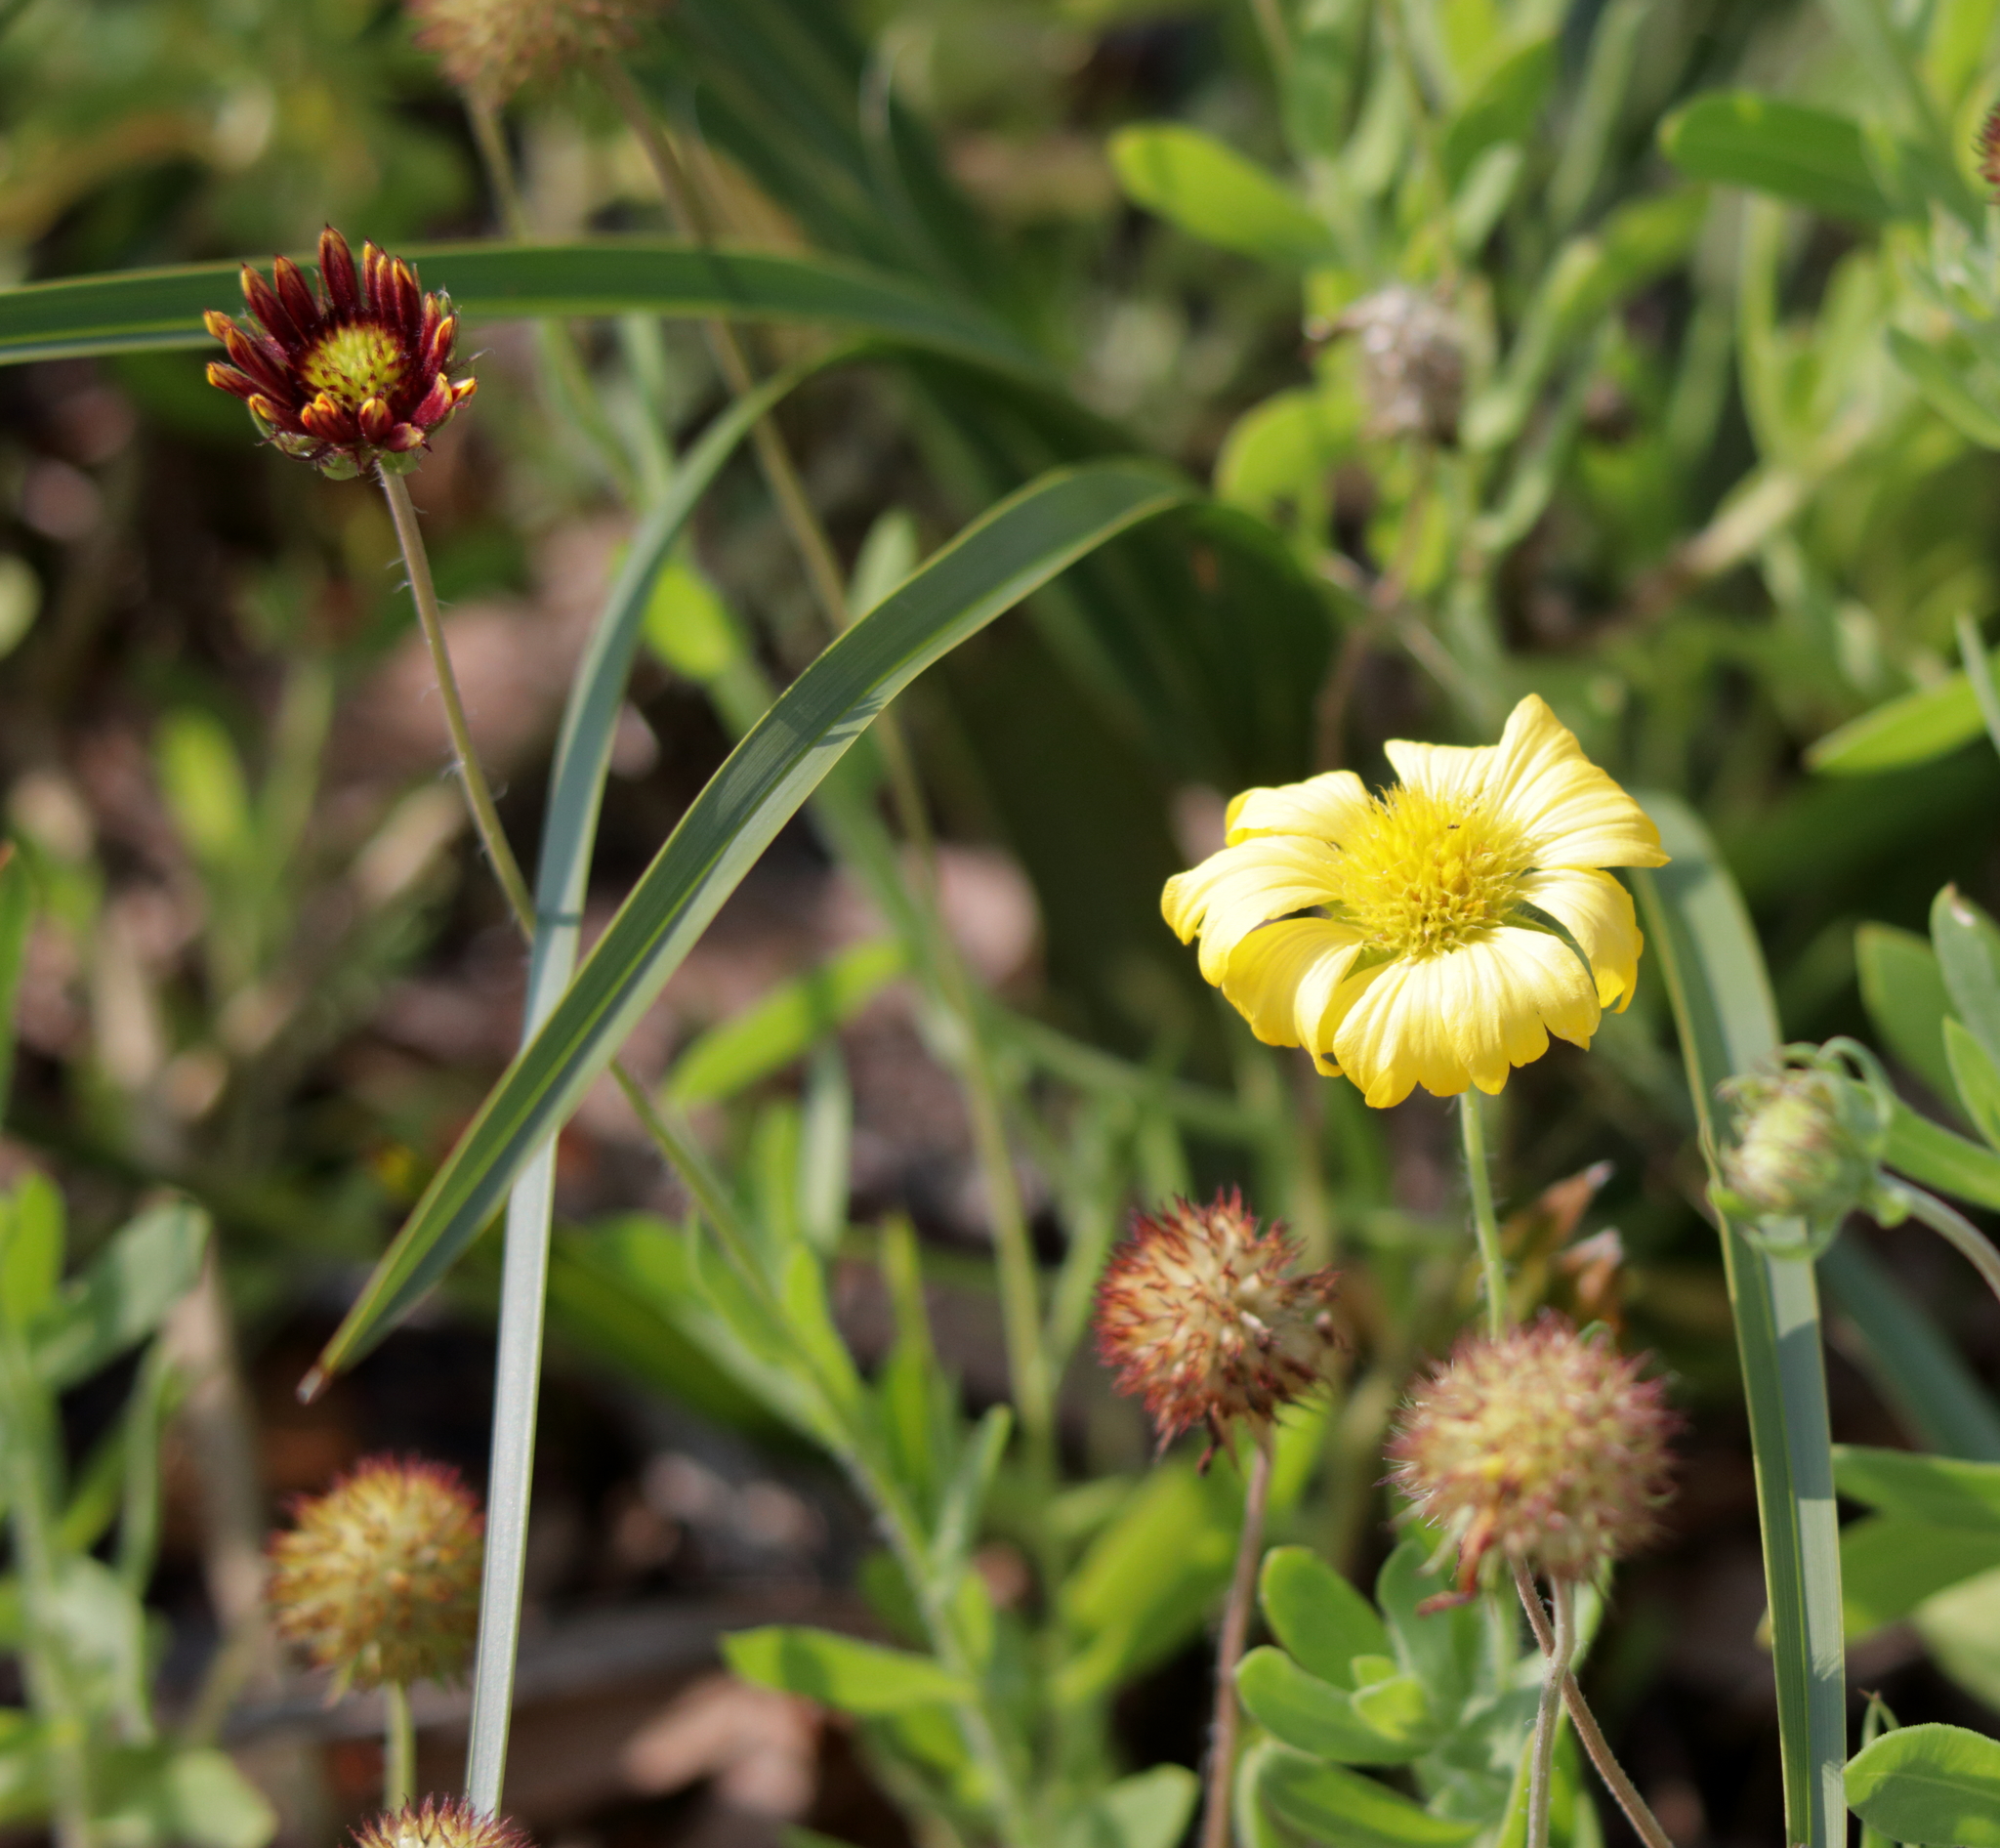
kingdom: Plantae
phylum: Tracheophyta
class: Magnoliopsida
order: Asterales
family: Asteraceae
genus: Gaillardia
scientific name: Gaillardia pulchella
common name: Firewheel
